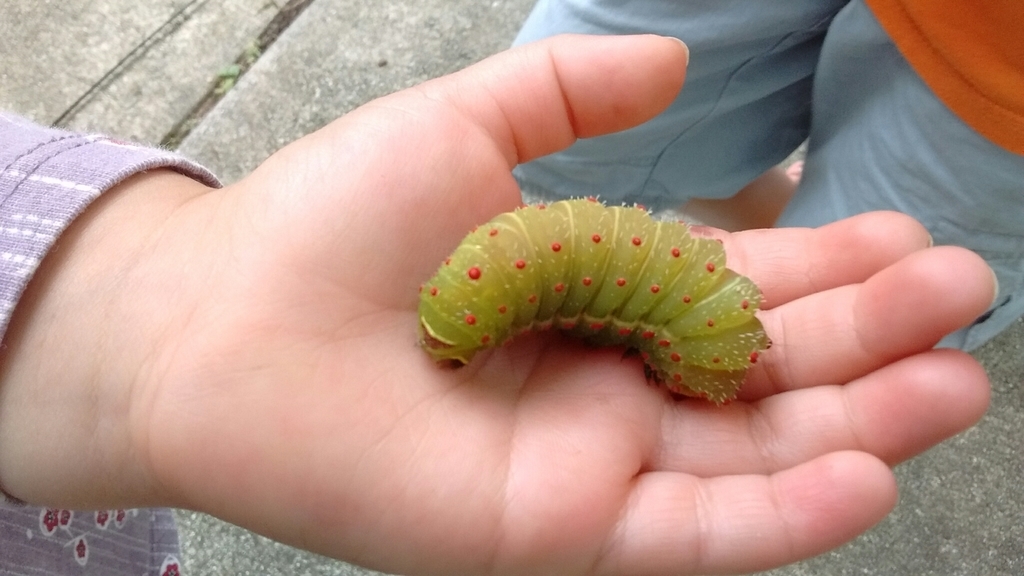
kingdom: Animalia
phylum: Arthropoda
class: Insecta
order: Lepidoptera
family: Saturniidae
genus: Actias
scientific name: Actias luna
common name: Luna moth
